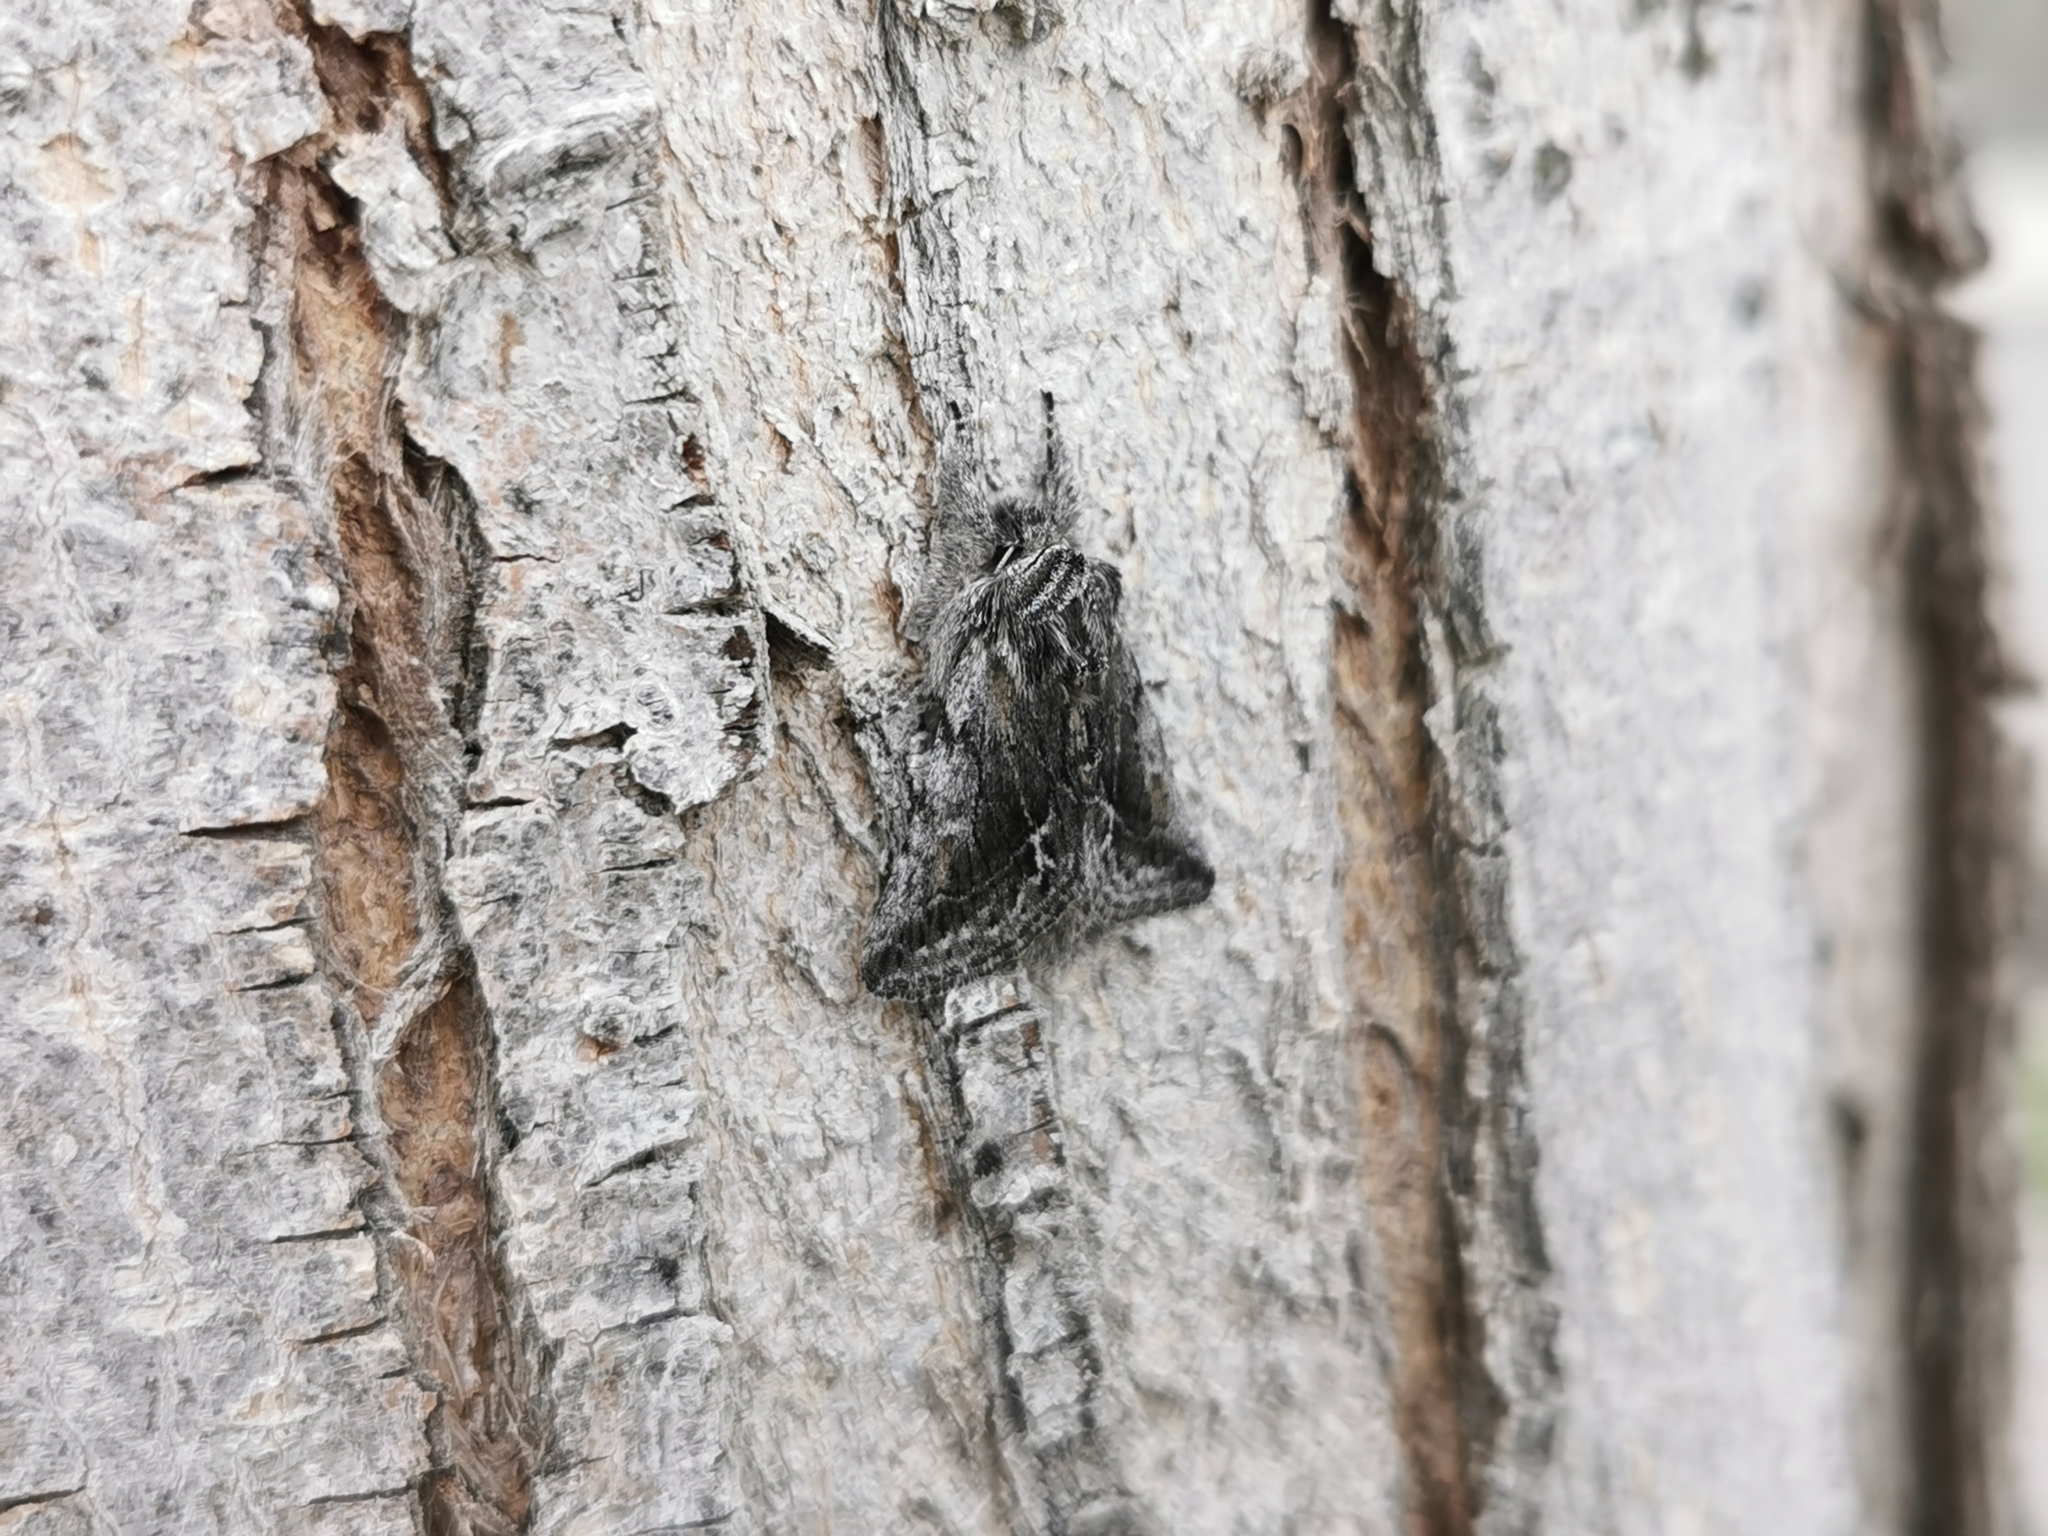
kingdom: Animalia
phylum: Arthropoda
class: Insecta
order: Lepidoptera
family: Noctuidae
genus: Pleromelloida
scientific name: Pleromelloida conserta
